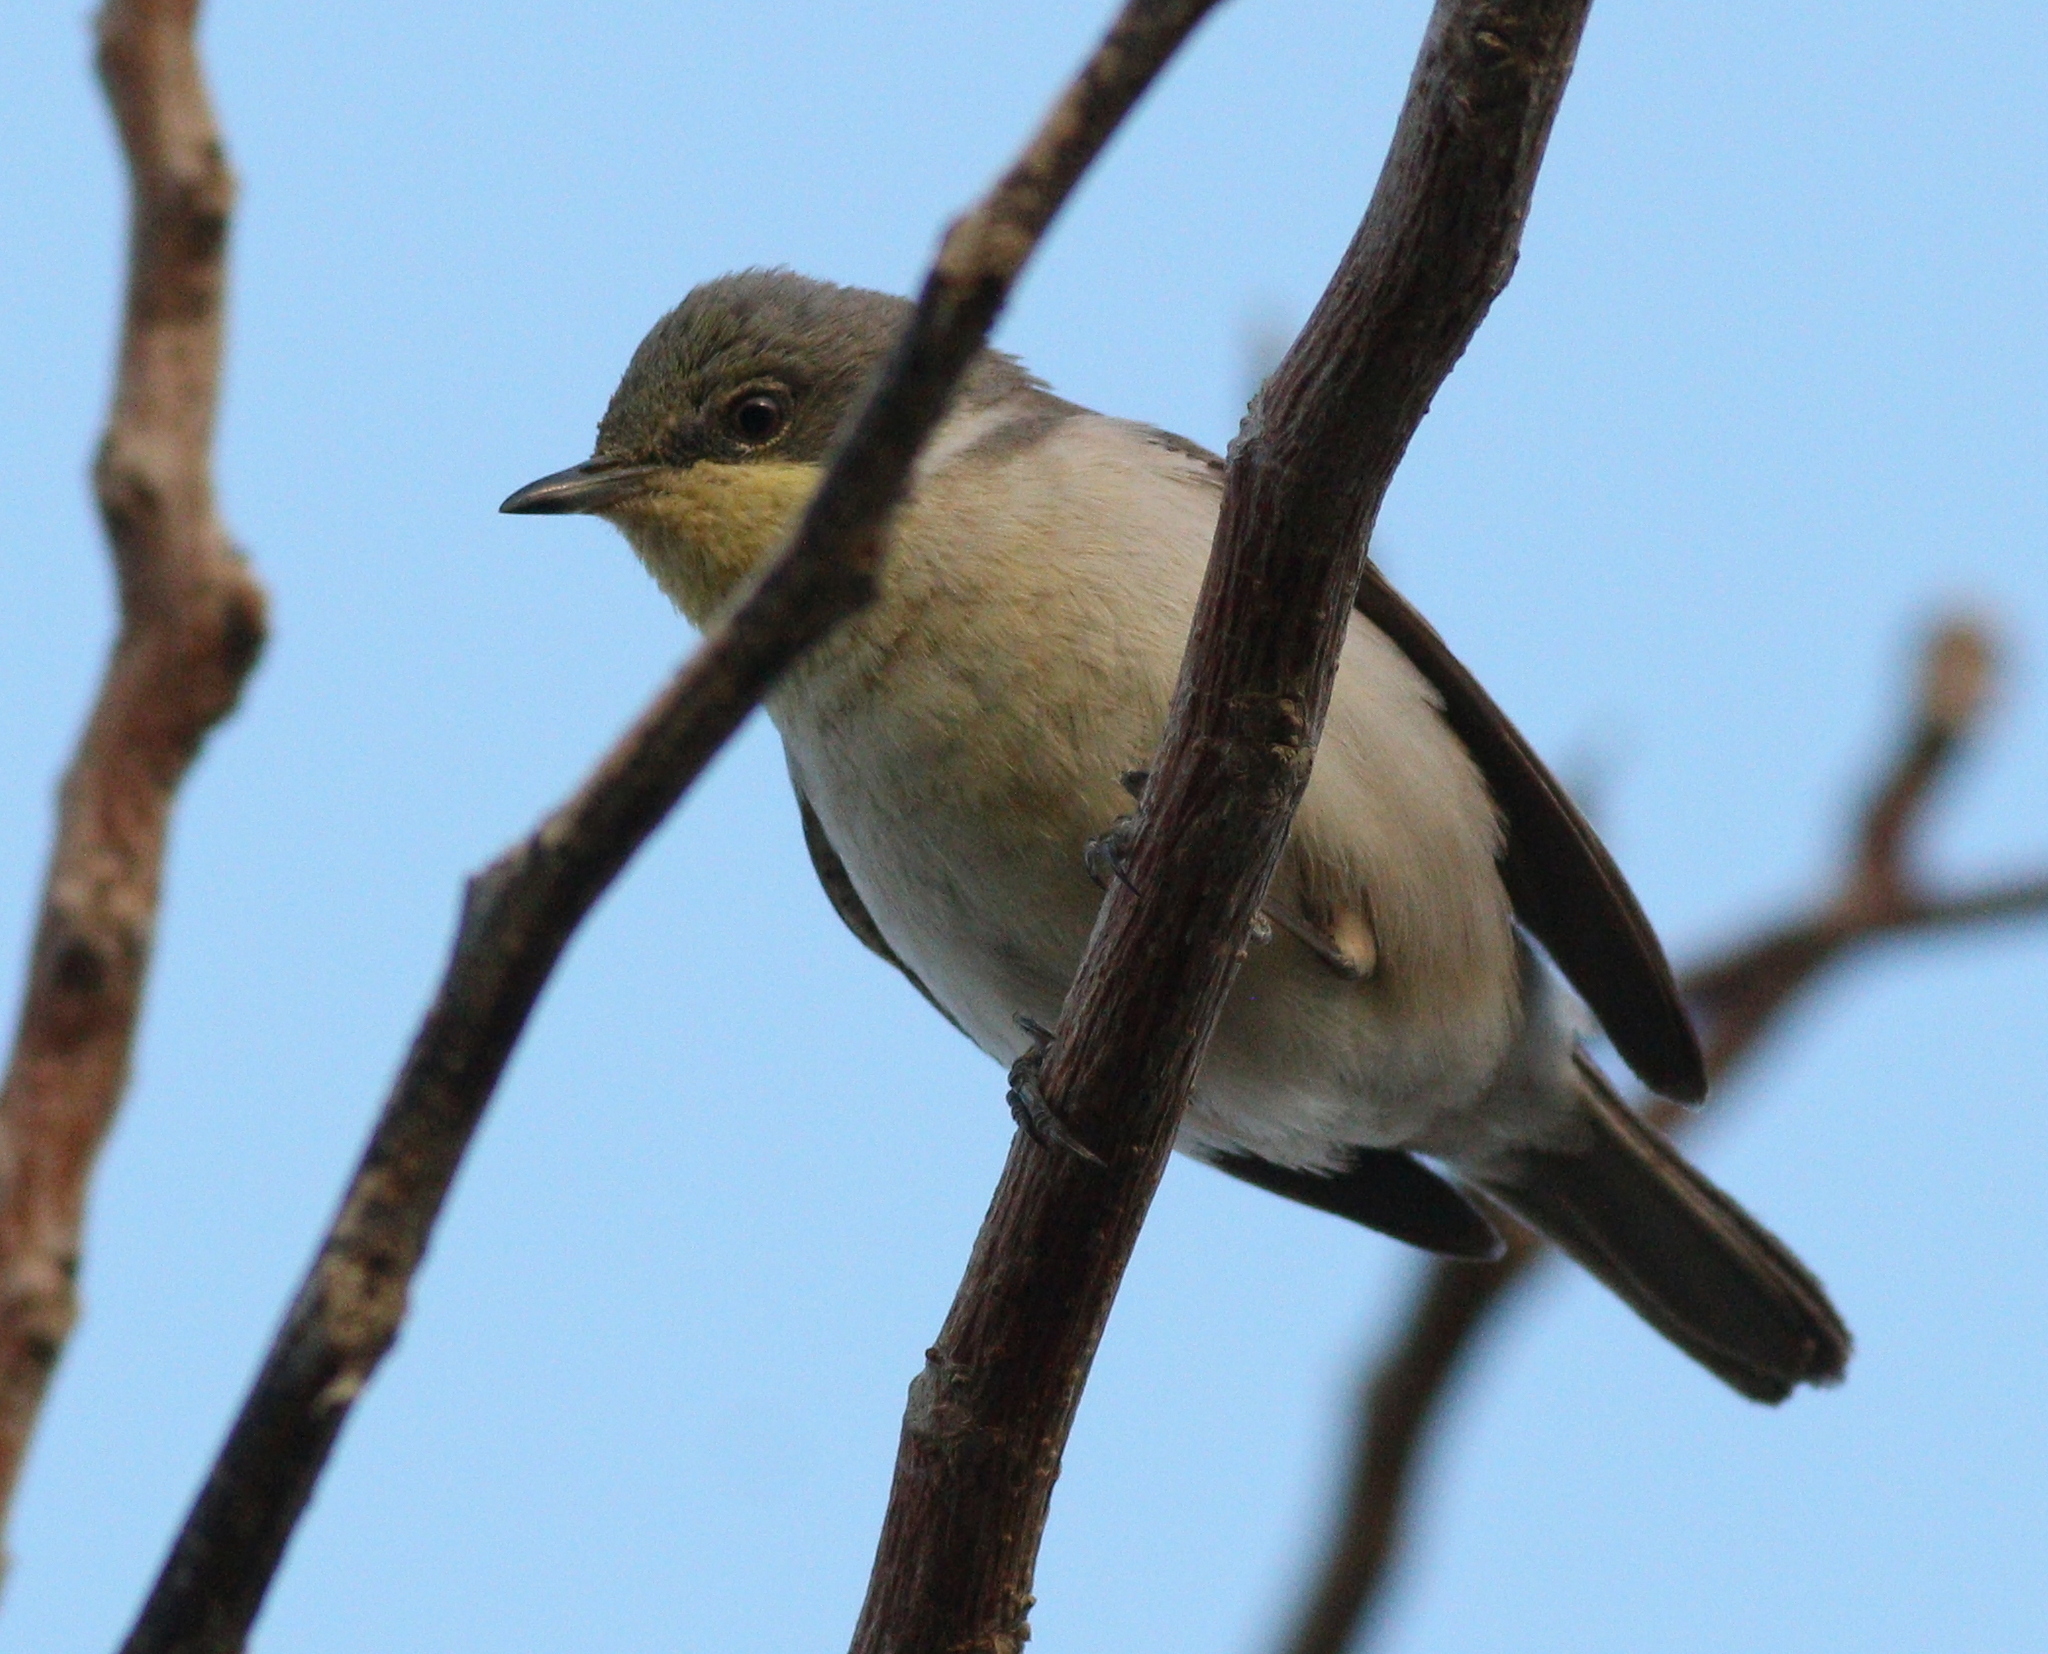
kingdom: Animalia
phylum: Chordata
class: Aves
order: Passeriformes
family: Sylviidae
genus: Sylvia
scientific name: Sylvia curruca
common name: Lesser whitethroat
